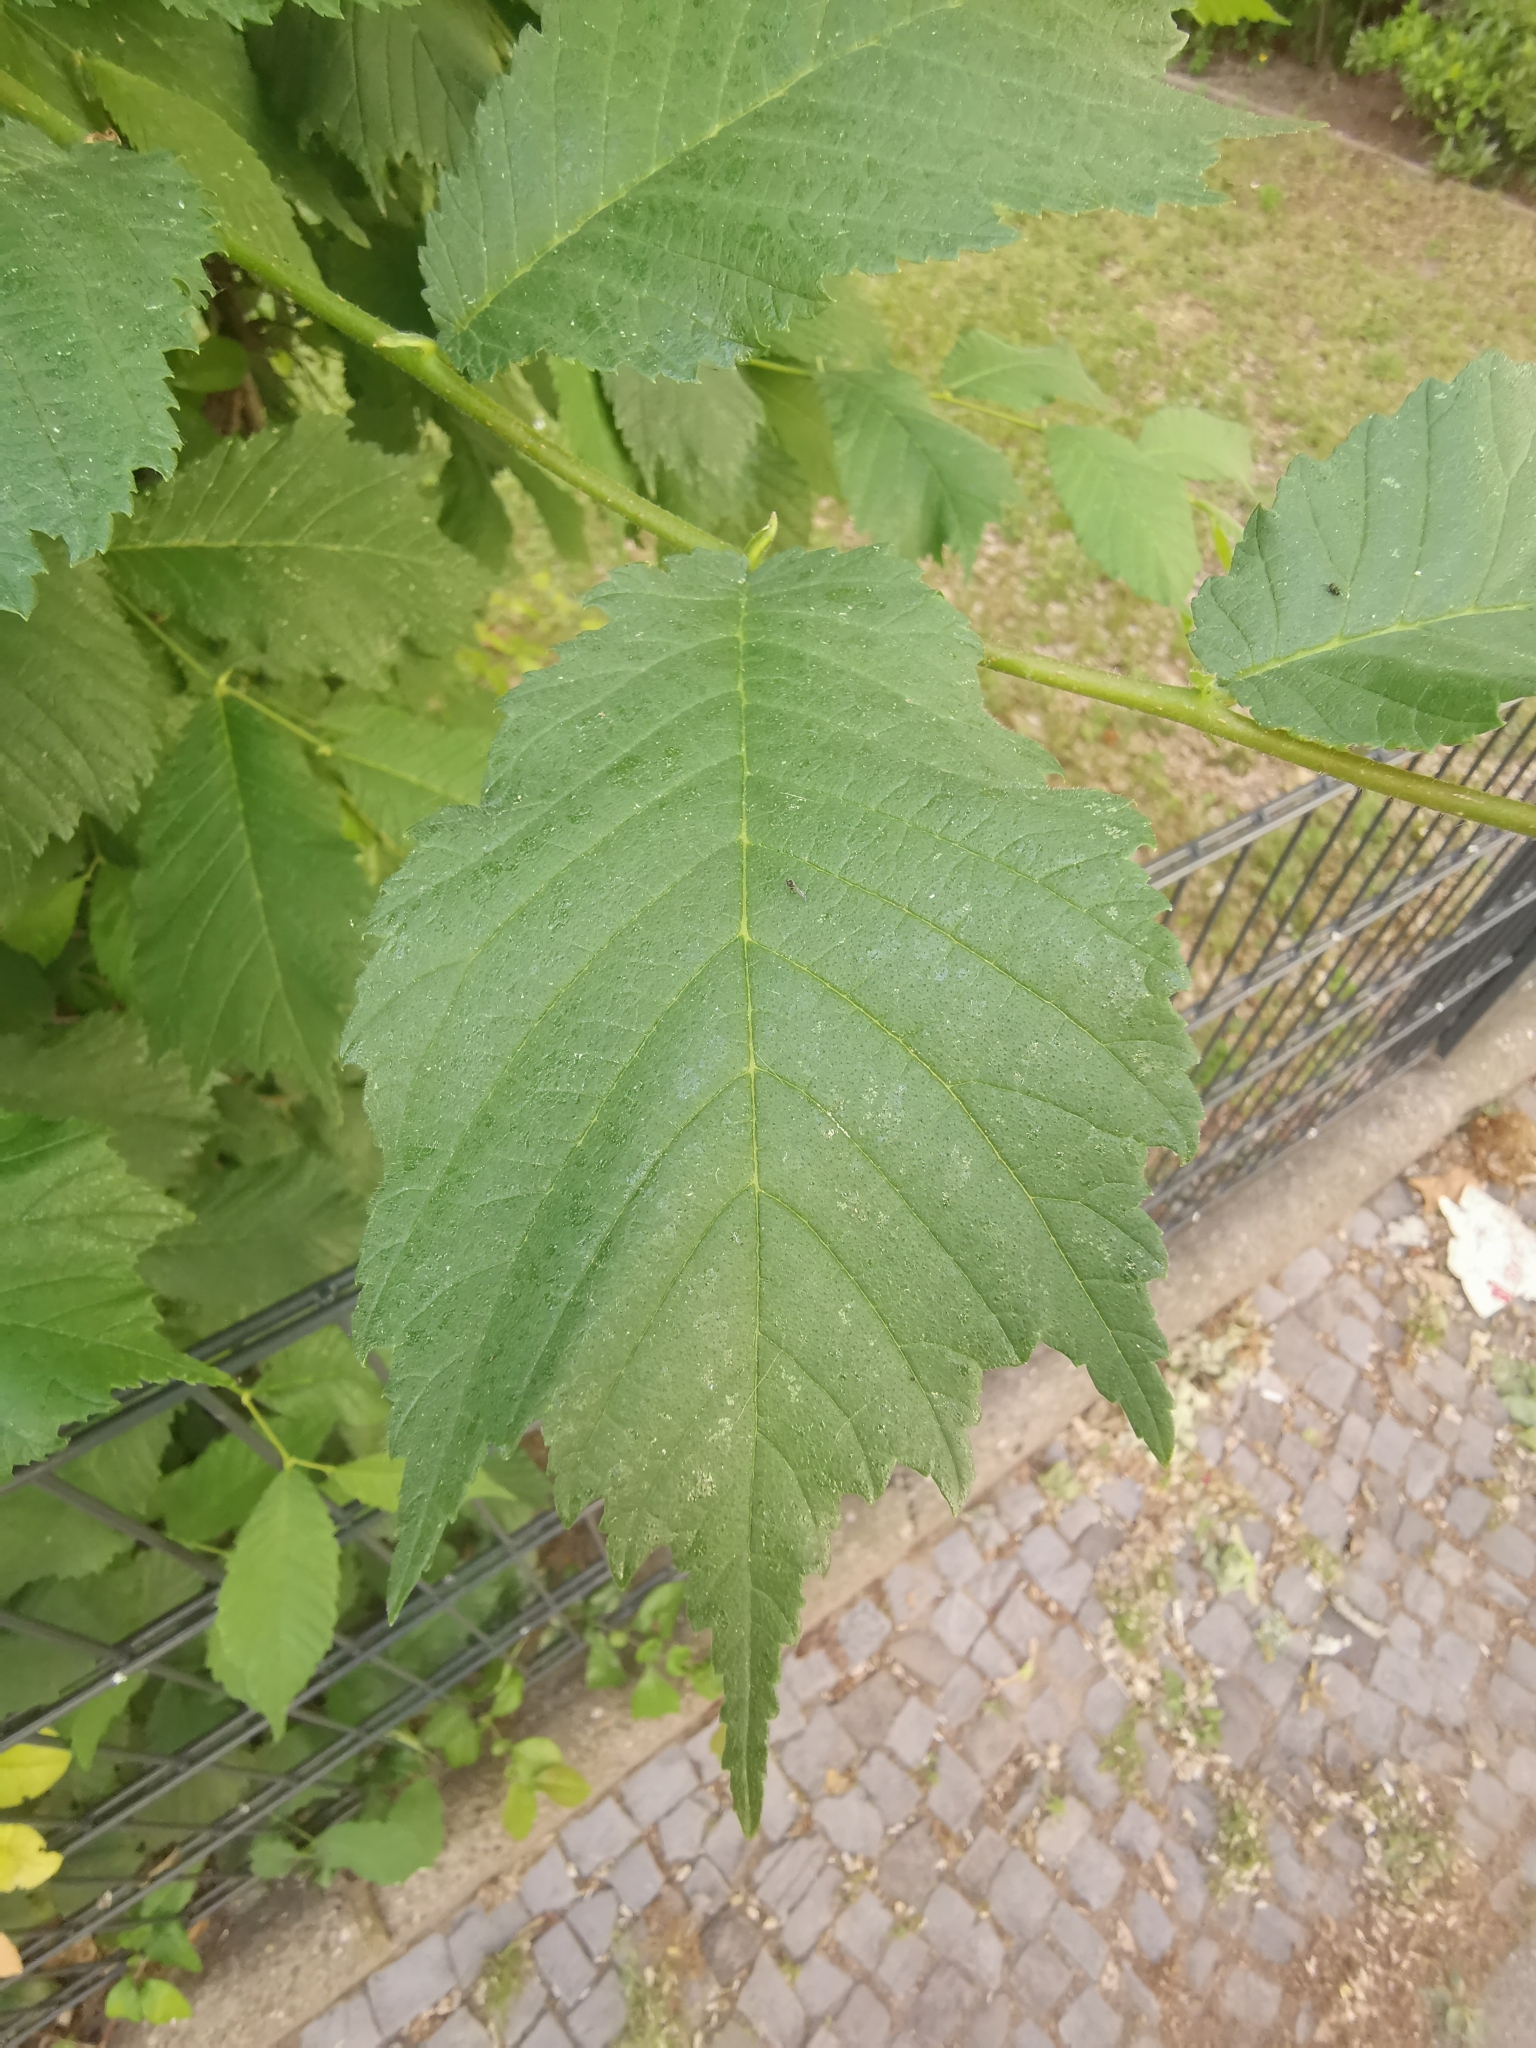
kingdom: Animalia
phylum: Arthropoda
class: Insecta
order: Hemiptera
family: Aphididae
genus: Tinocallis
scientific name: Tinocallis takachihoensis
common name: Aphid
